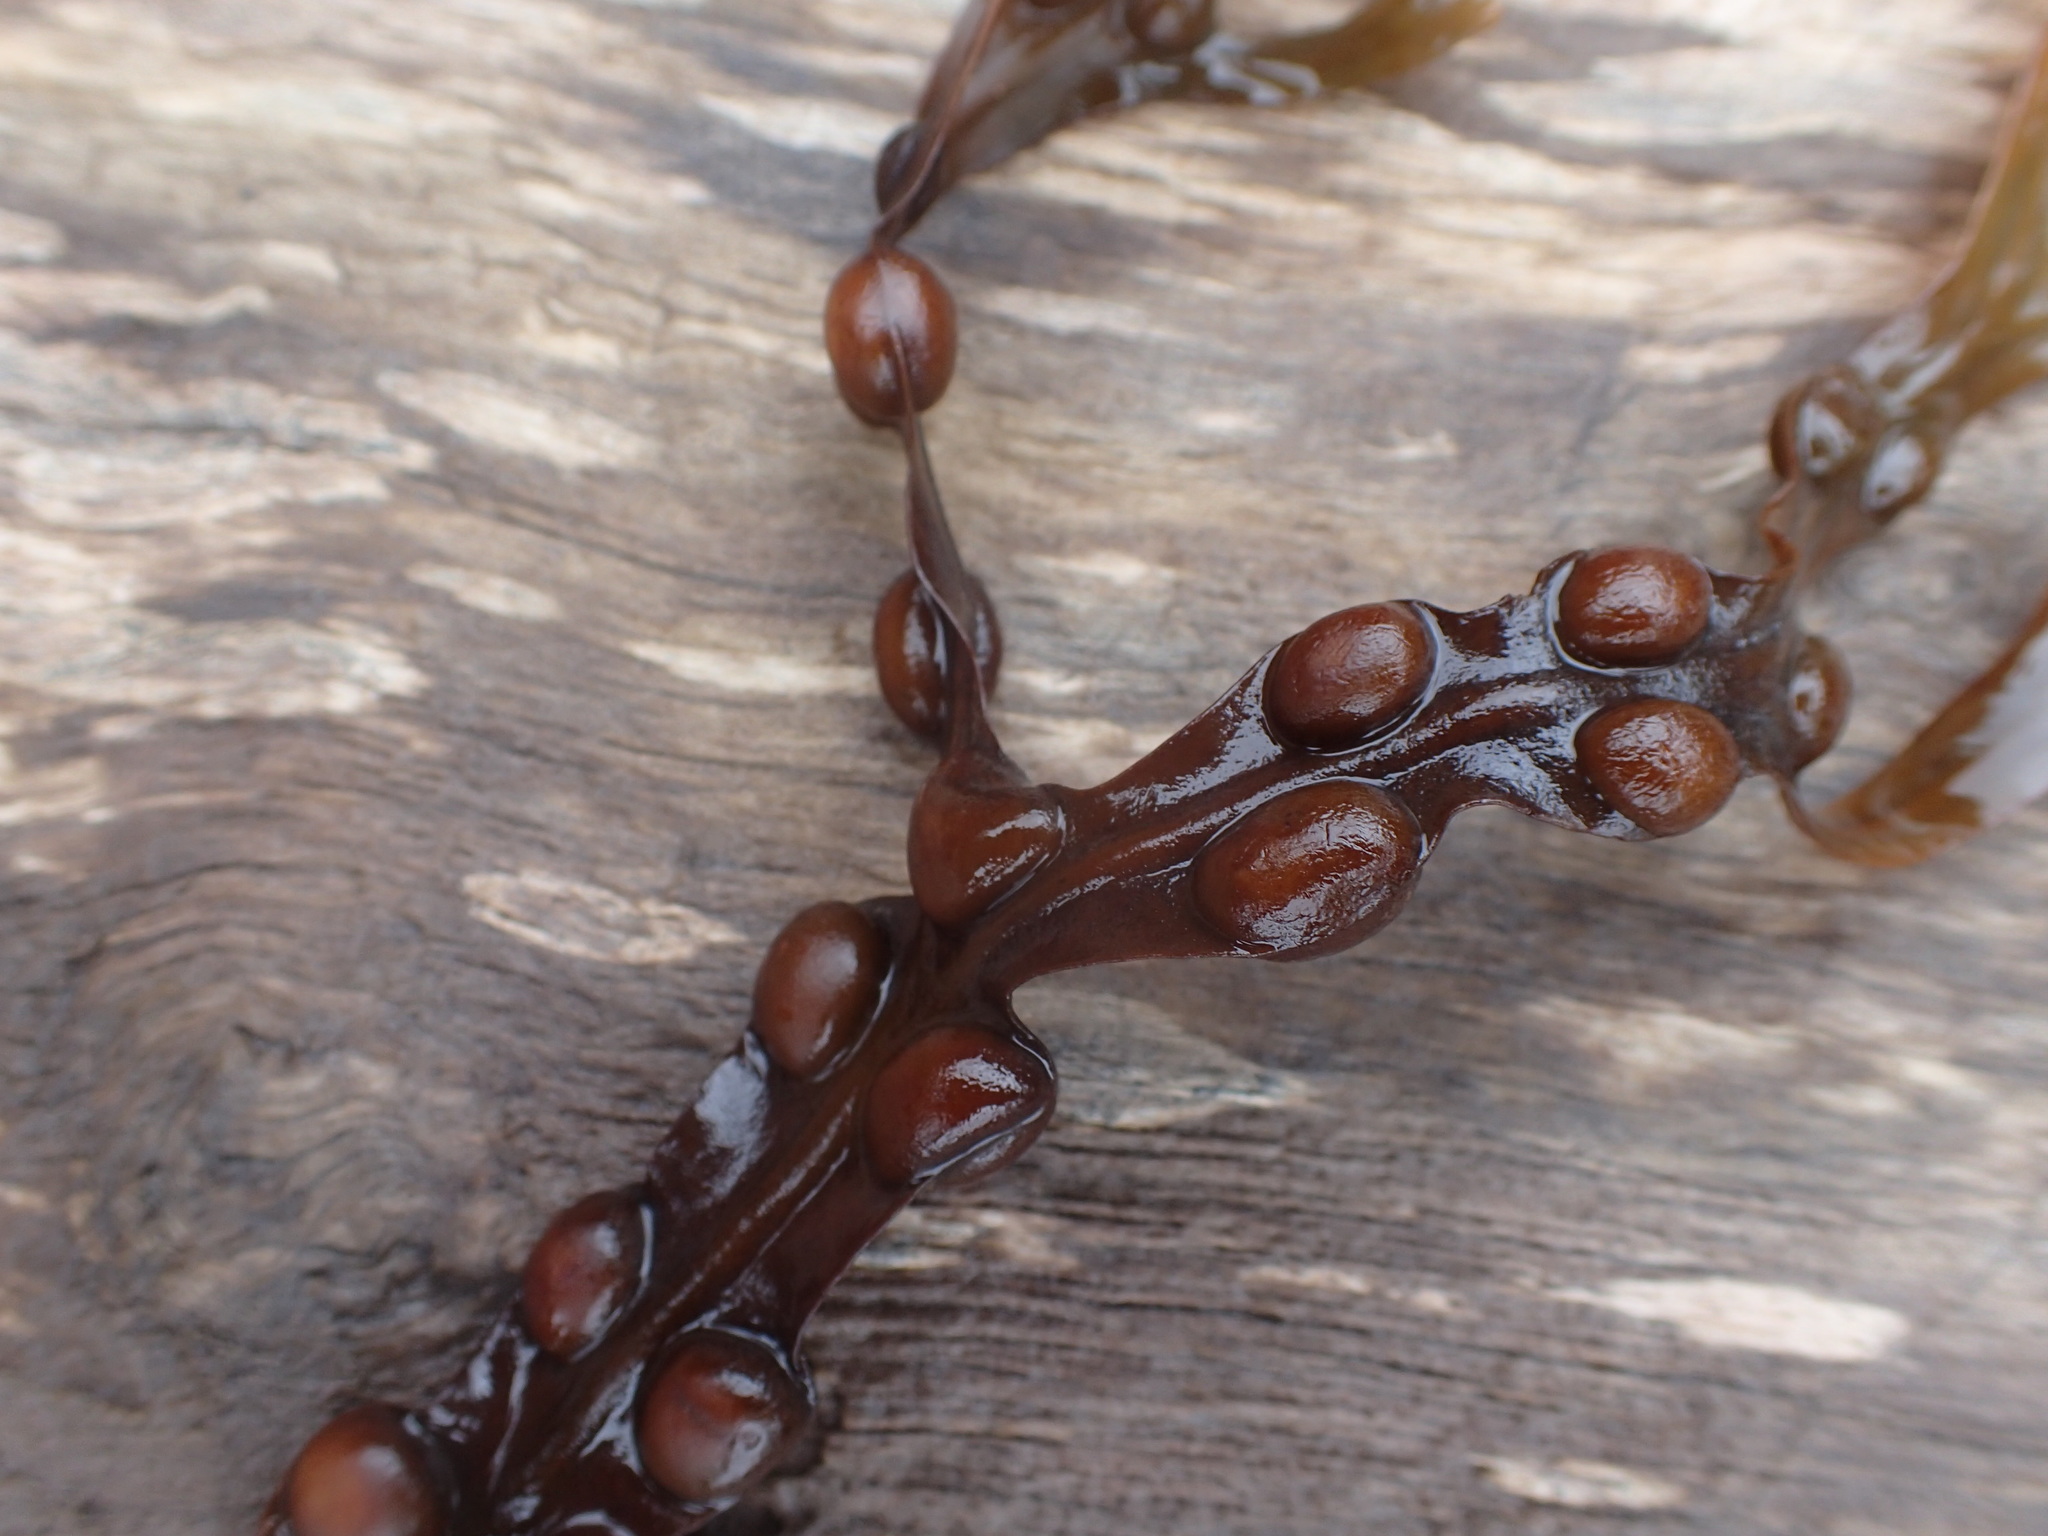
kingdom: Chromista
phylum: Ochrophyta
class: Phaeophyceae
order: Fucales
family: Fucaceae
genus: Fucus
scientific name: Fucus vesiculosus
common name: Bladder wrack
